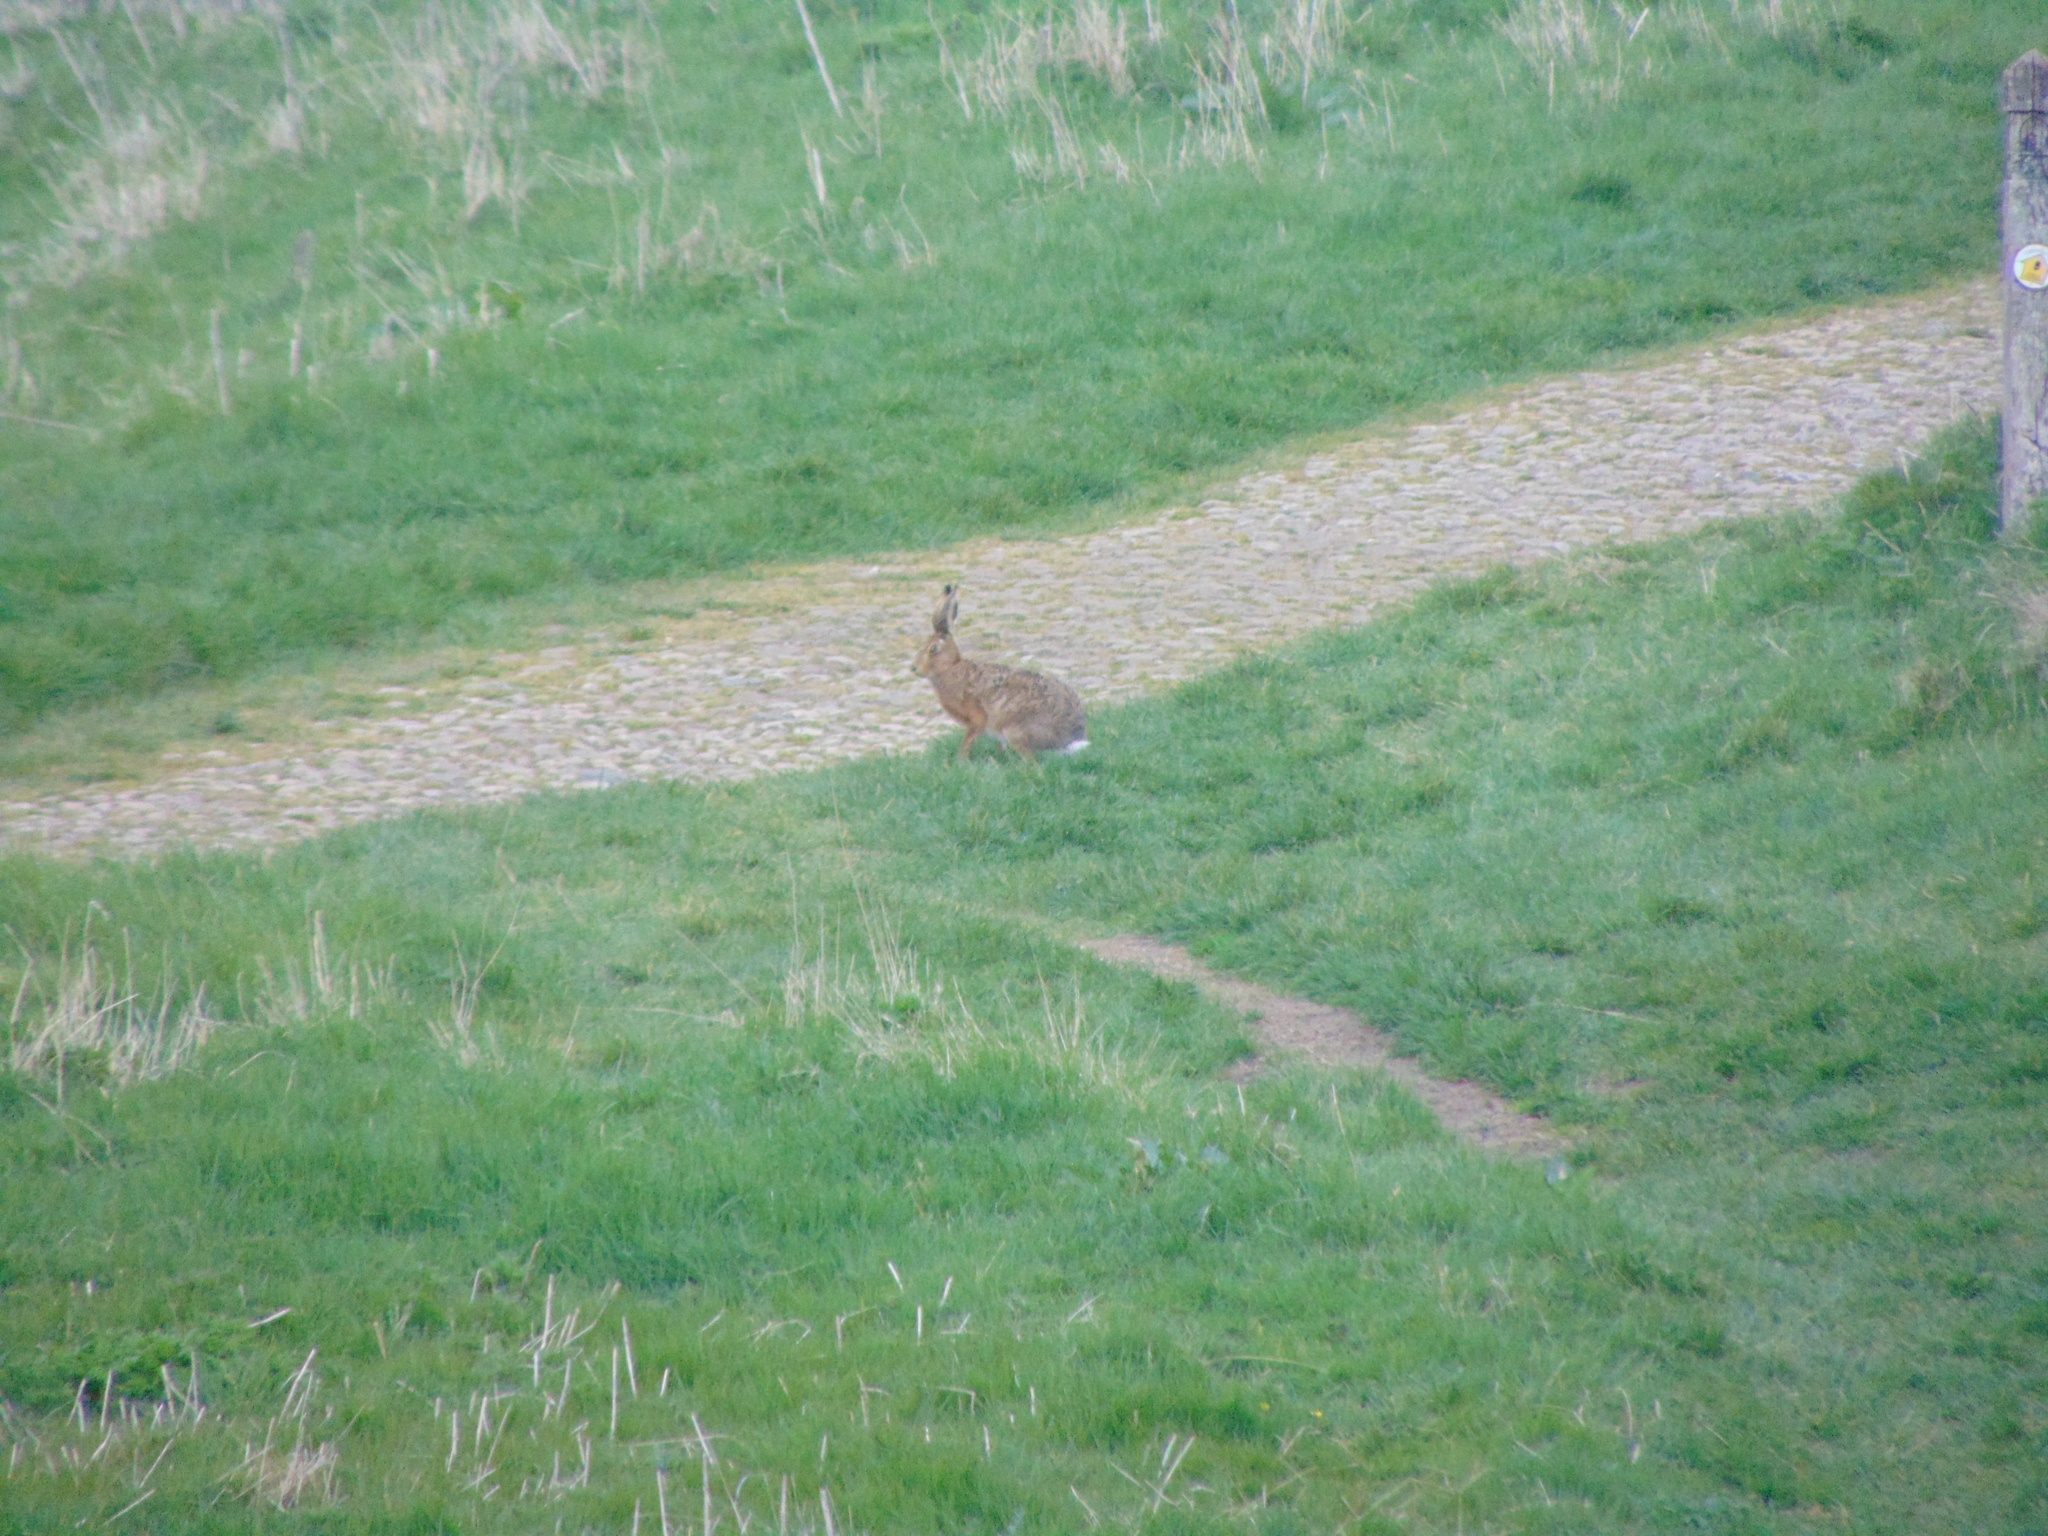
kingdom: Animalia
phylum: Chordata
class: Mammalia
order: Lagomorpha
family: Leporidae
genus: Lepus
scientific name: Lepus europaeus
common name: European hare
